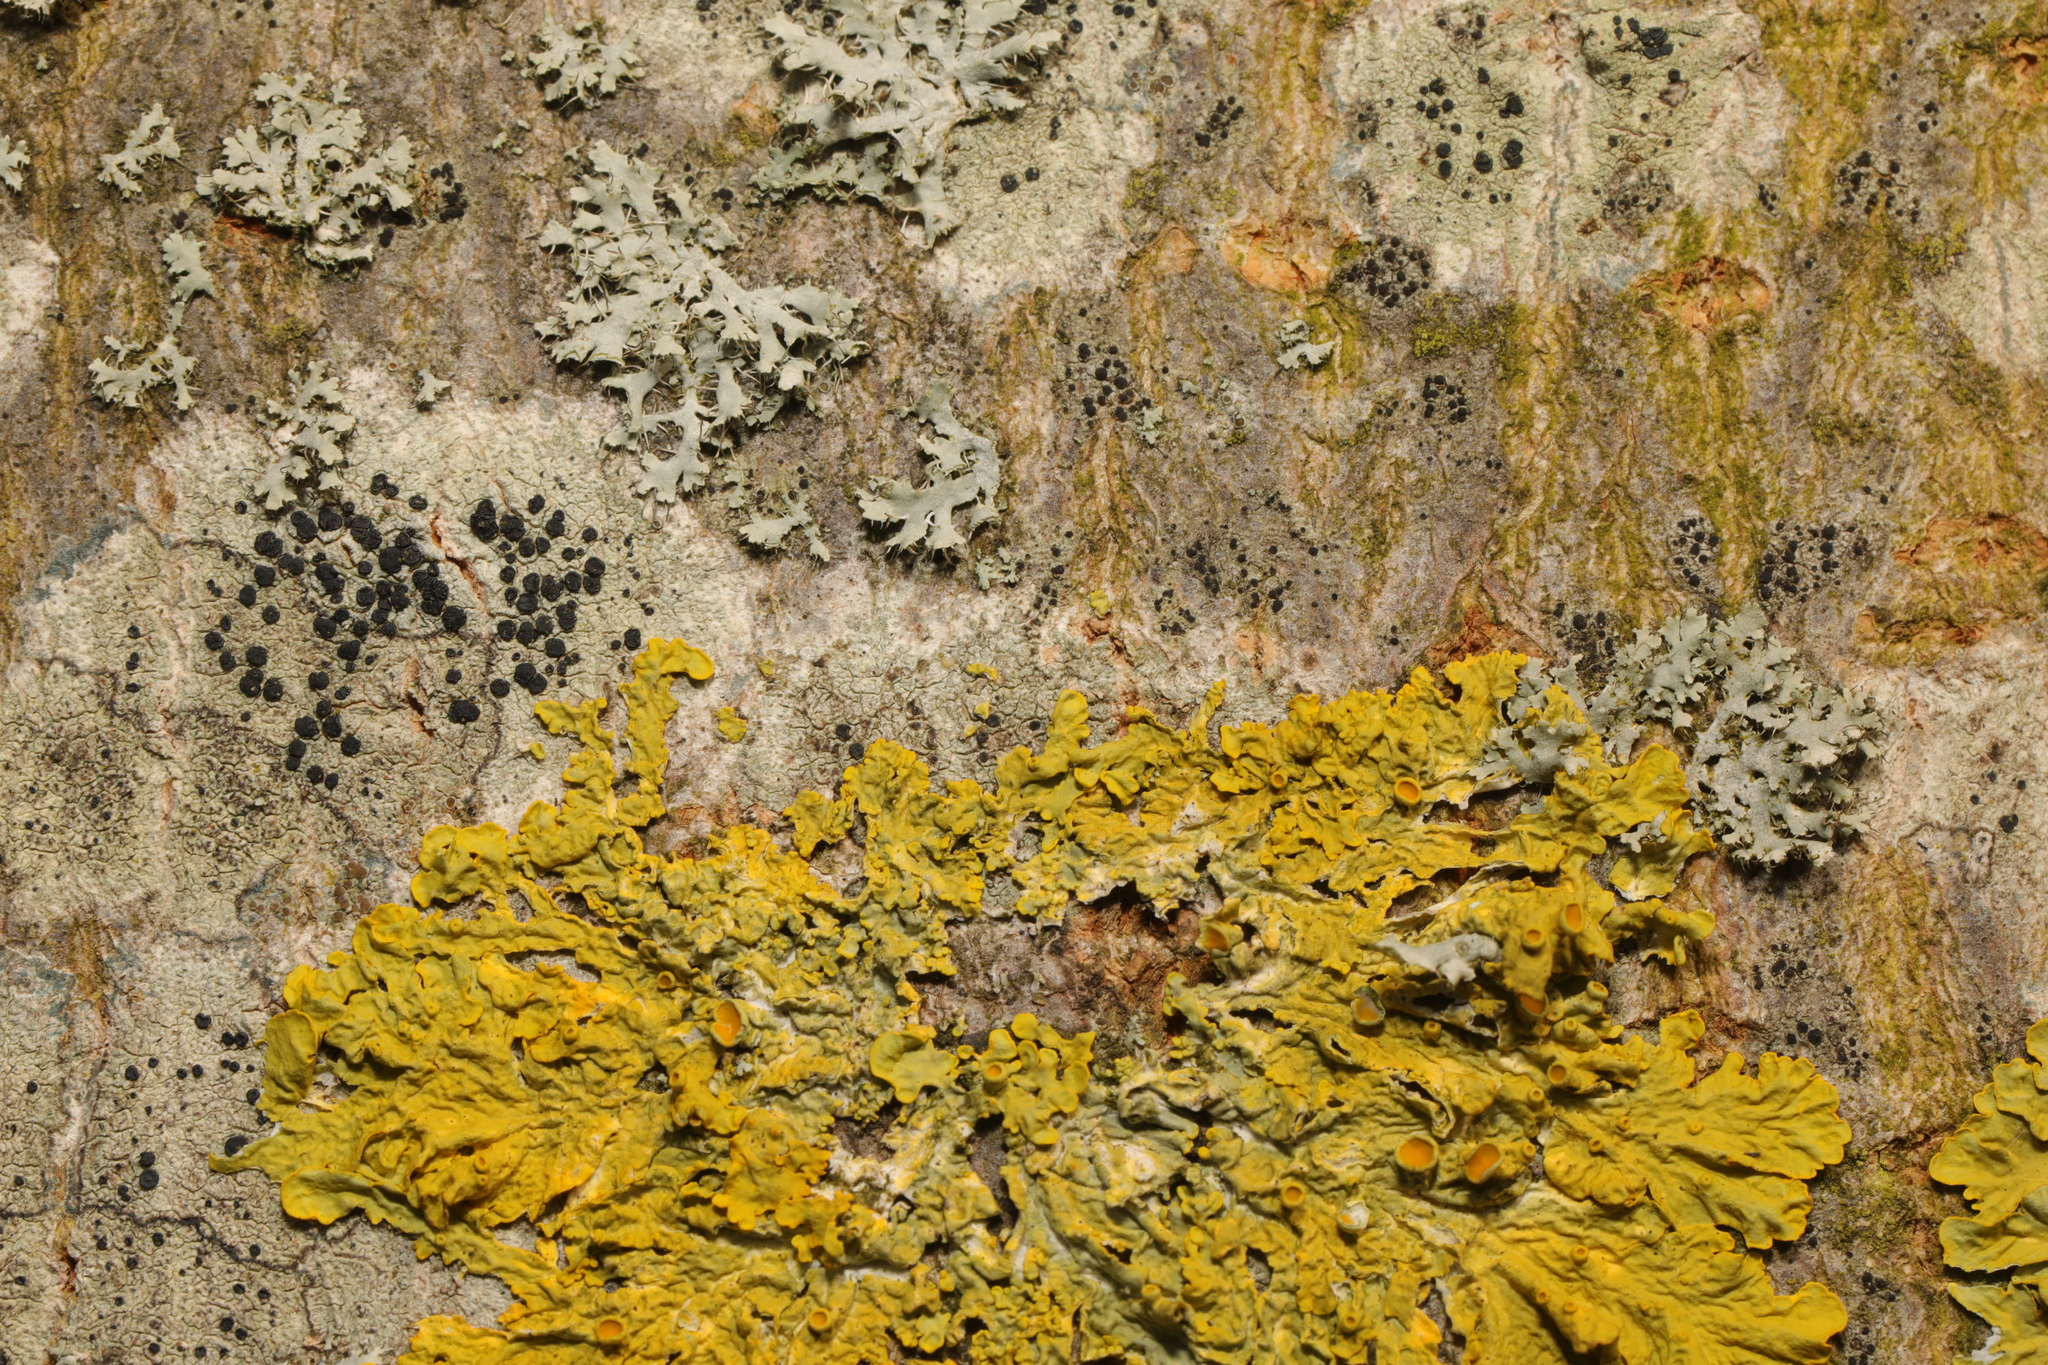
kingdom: Fungi
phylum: Ascomycota
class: Lecanoromycetes
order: Teloschistales
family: Teloschistaceae
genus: Xanthoria
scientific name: Xanthoria parietina
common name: Common orange lichen
